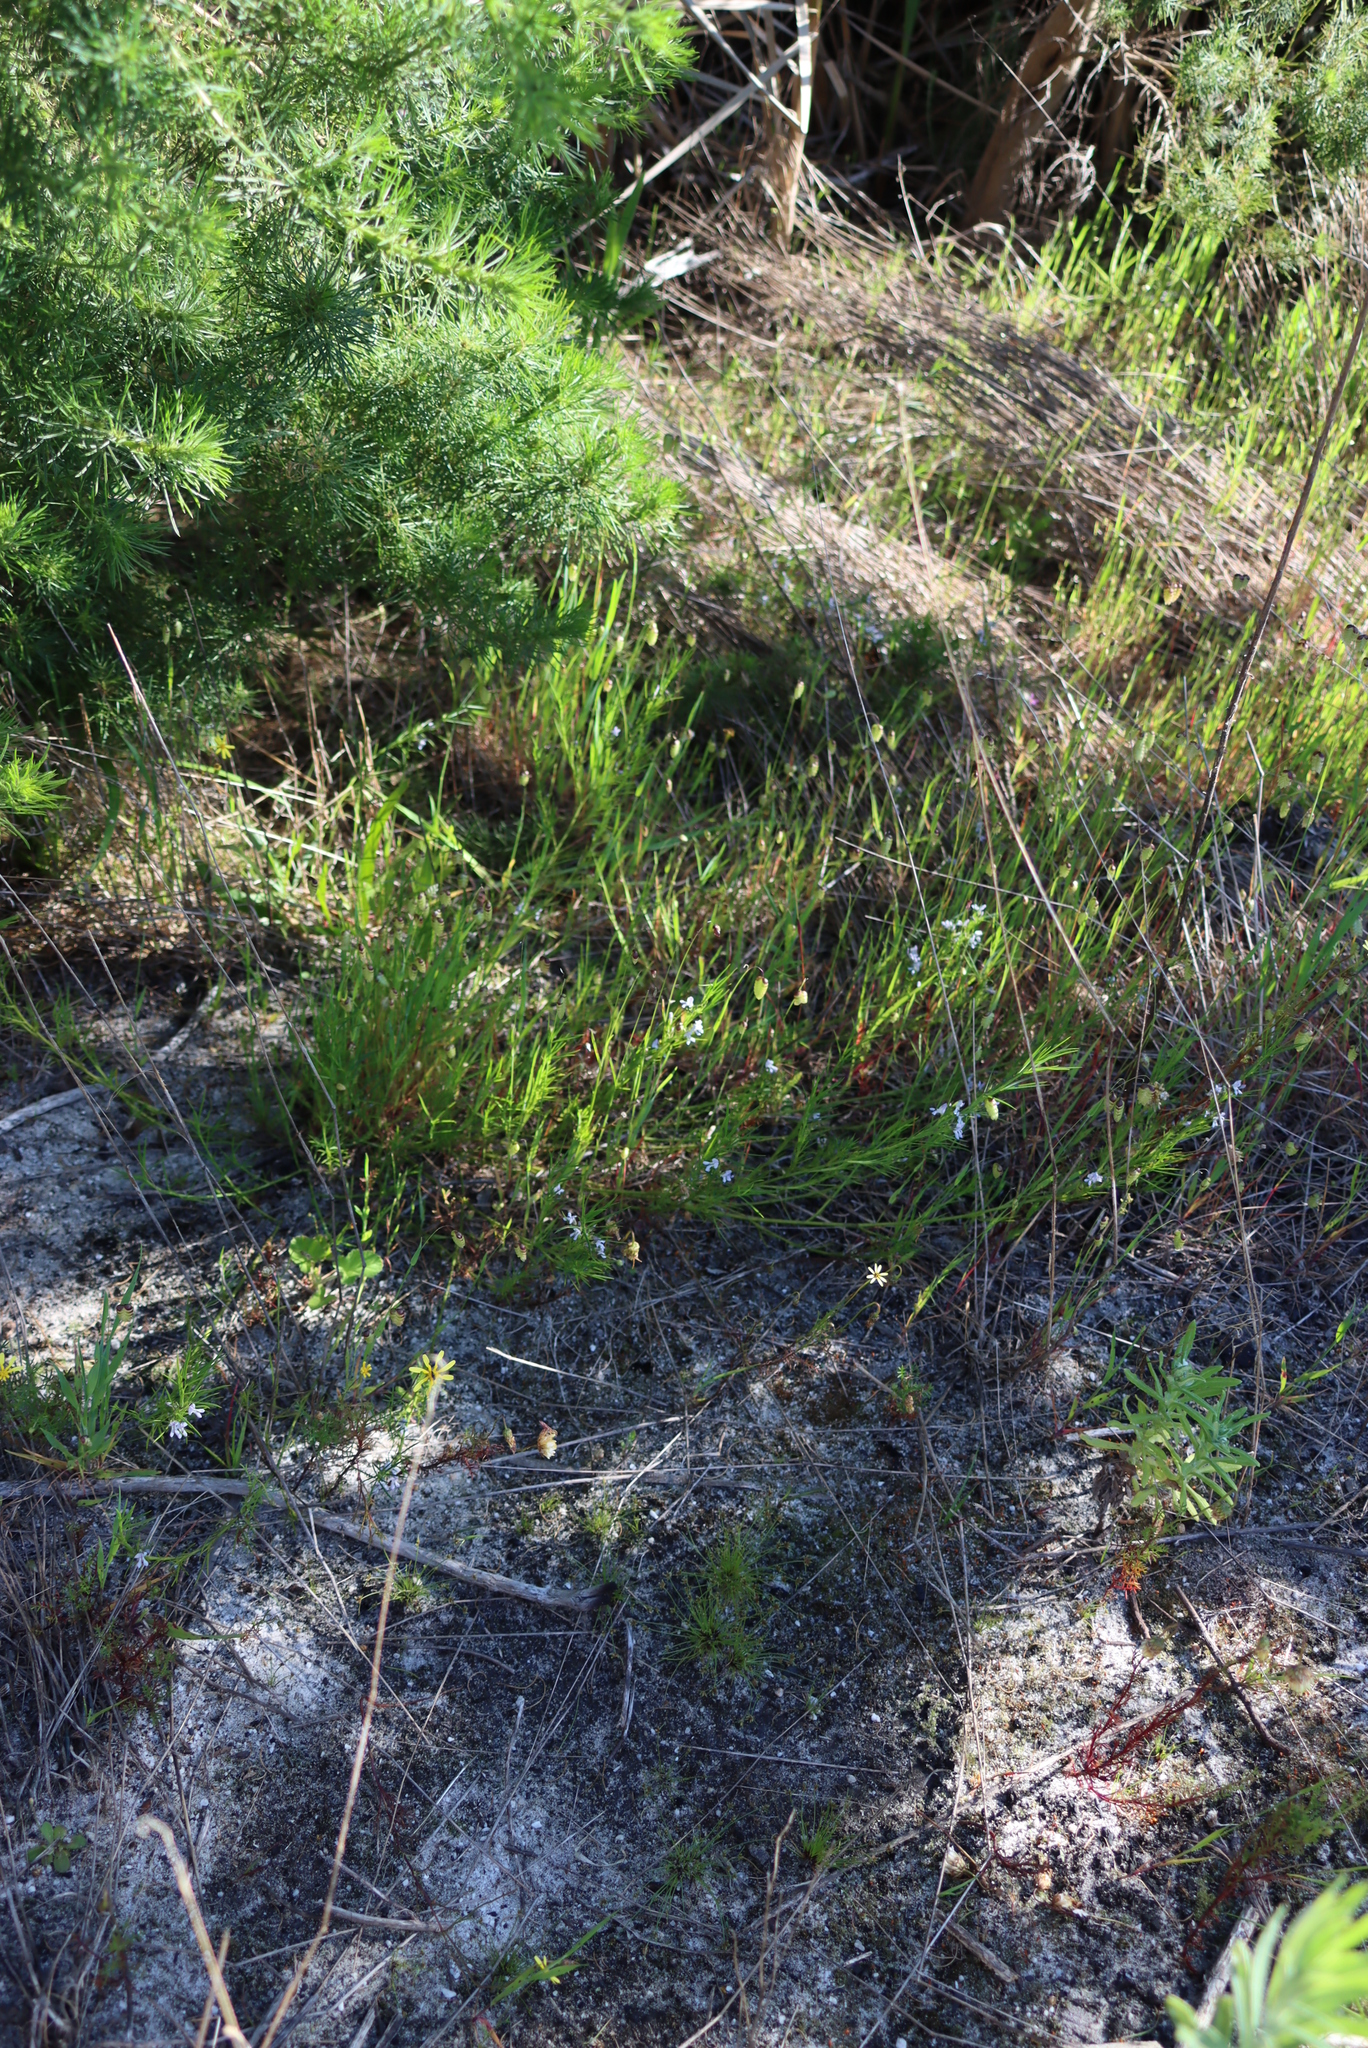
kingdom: Plantae
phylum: Tracheophyta
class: Magnoliopsida
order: Fabales
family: Fabaceae
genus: Psoralea
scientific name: Psoralea fascicularis
